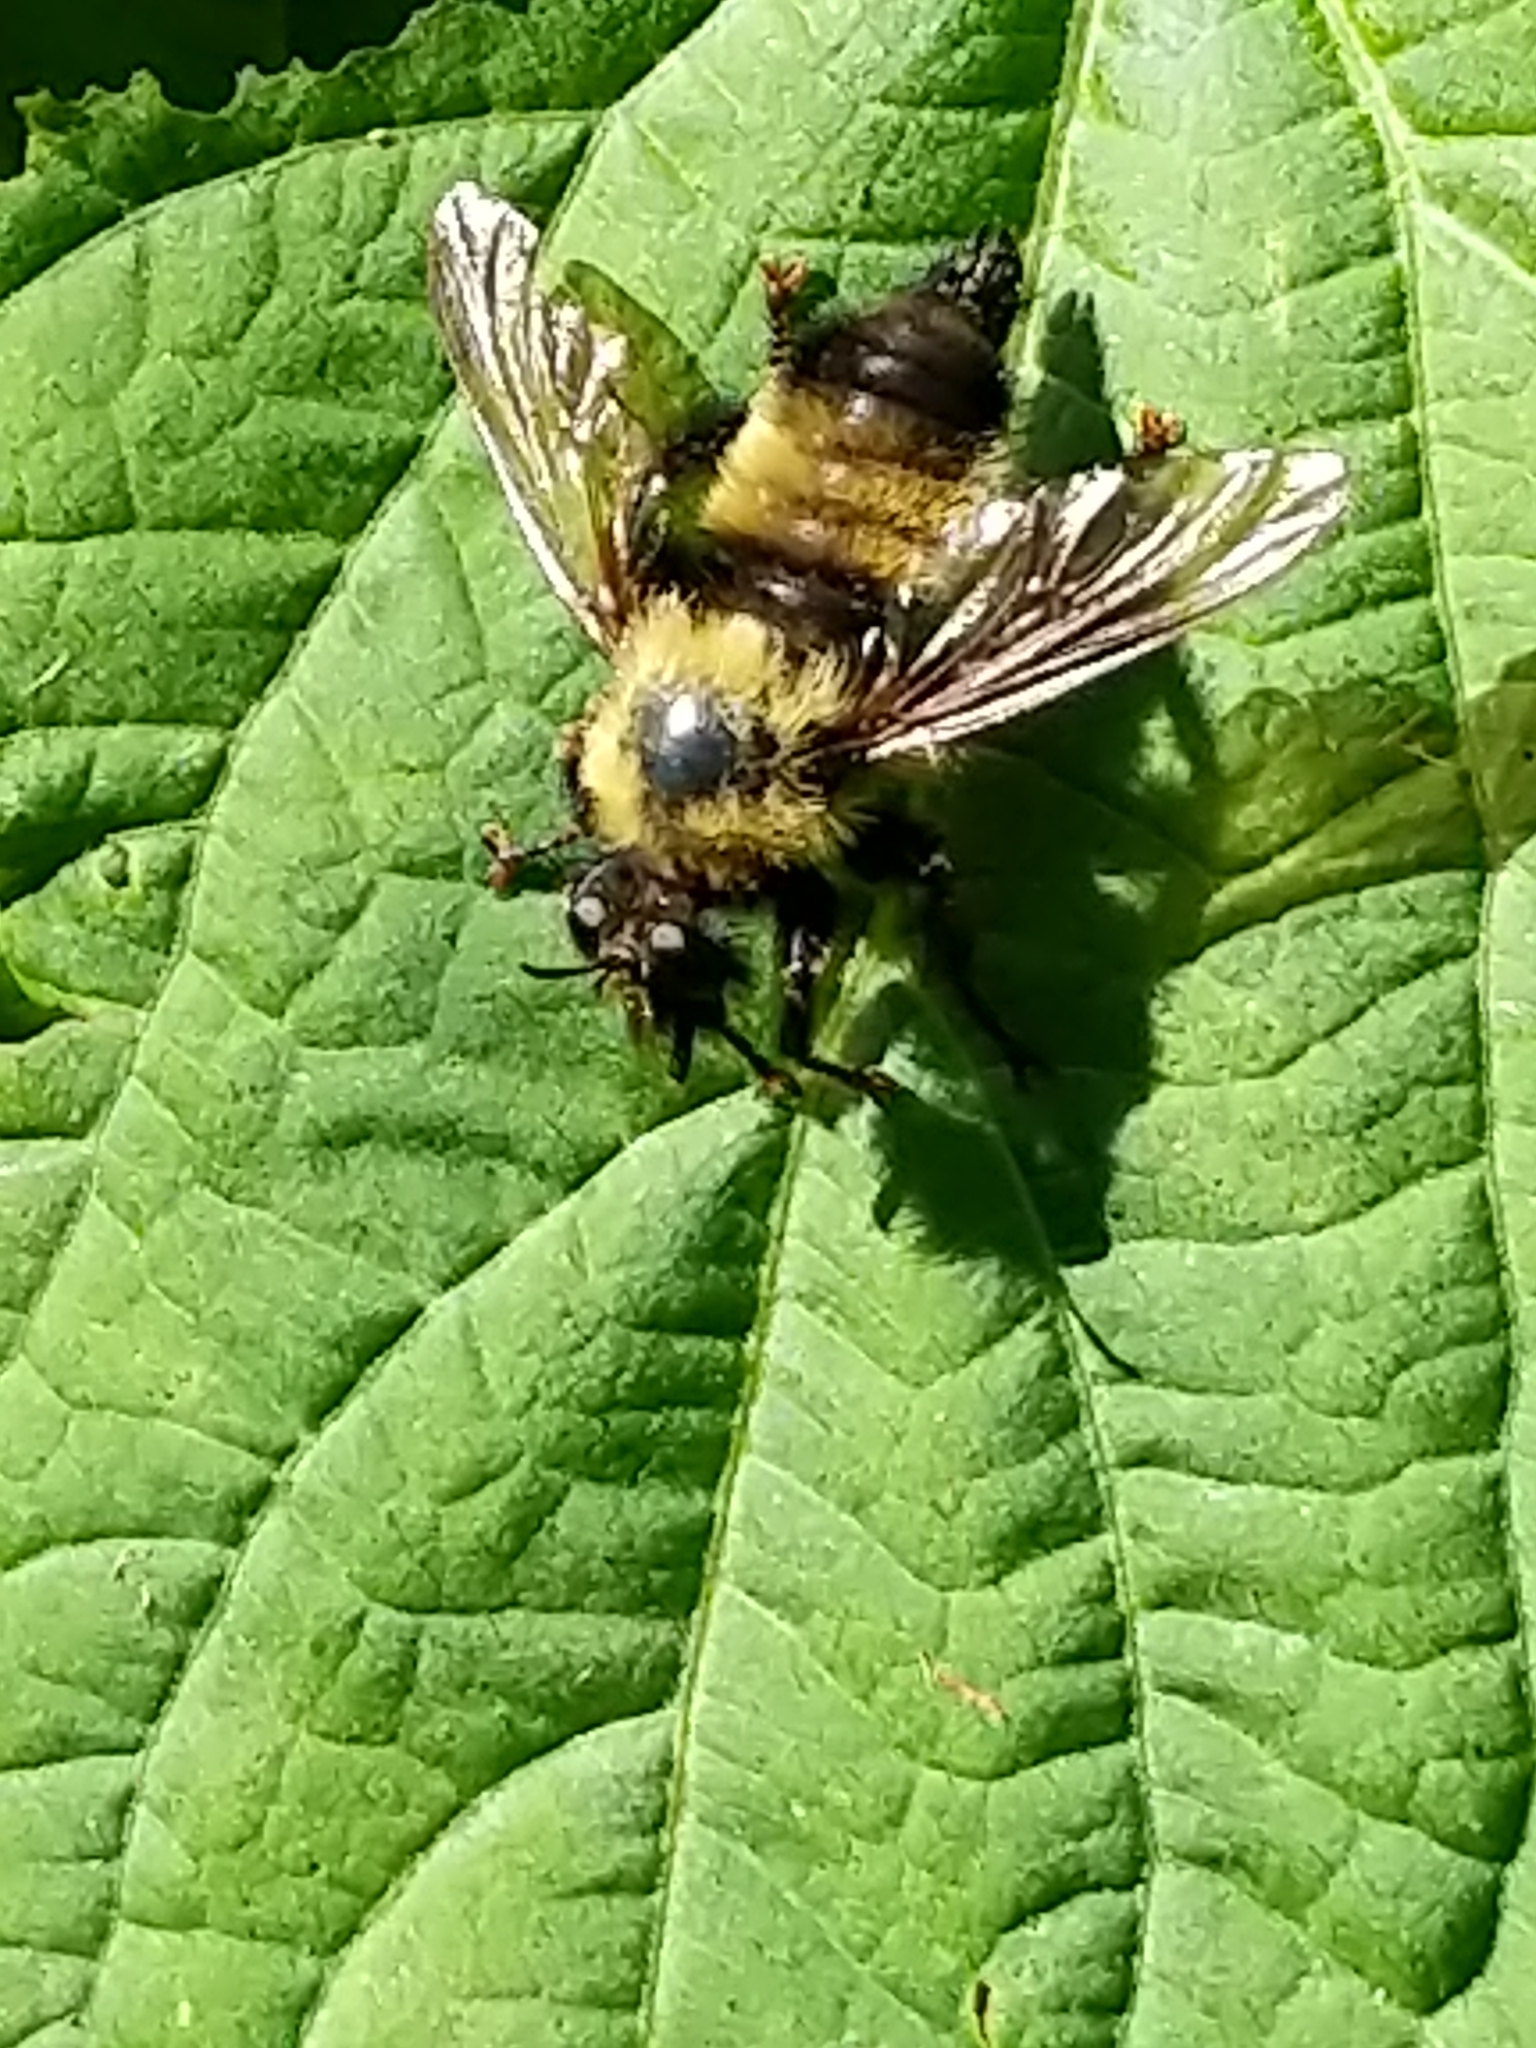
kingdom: Animalia
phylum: Arthropoda
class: Insecta
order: Diptera
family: Asilidae
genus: Laphria
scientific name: Laphria thoracica
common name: Bumble bee mimic robber fly
